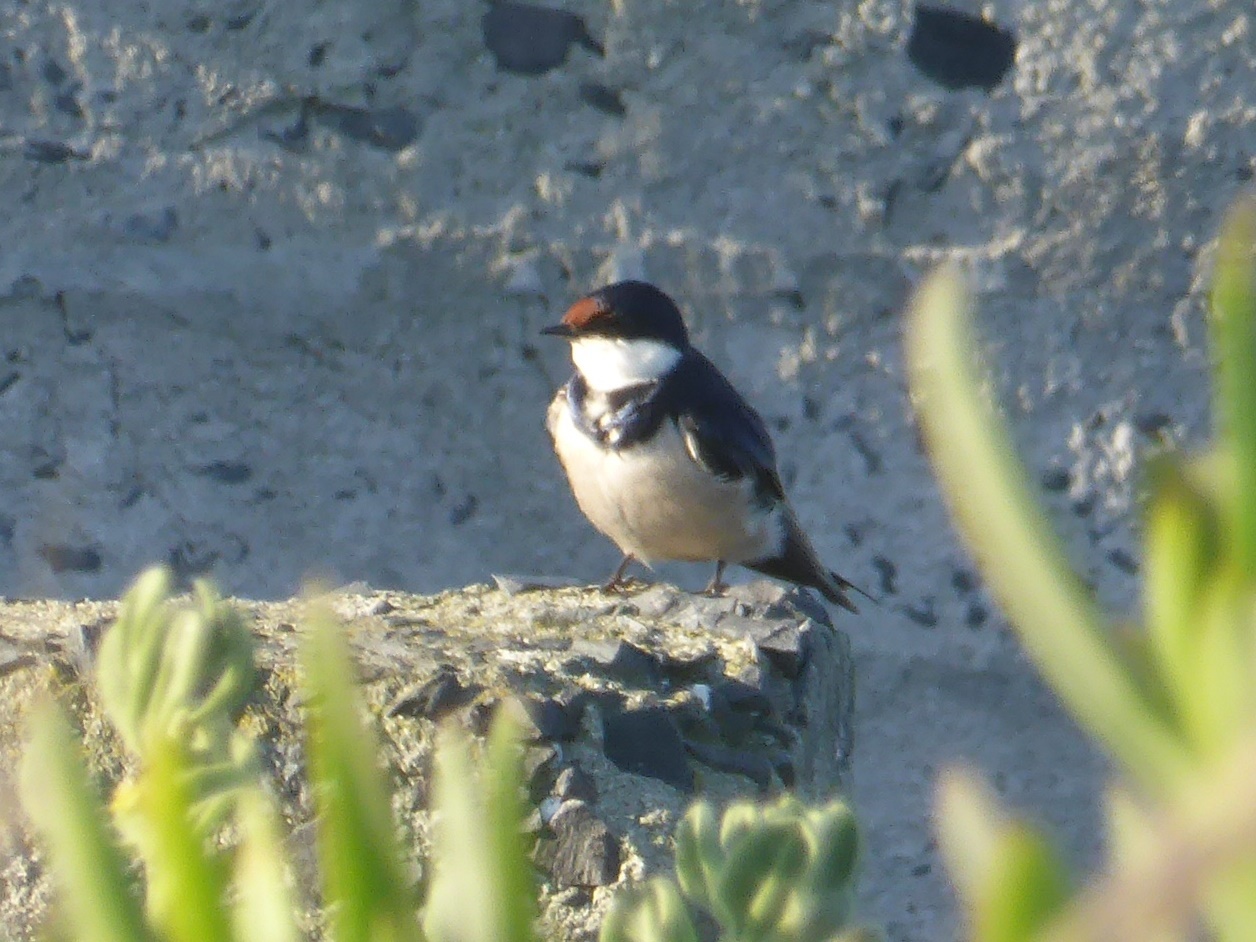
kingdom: Animalia
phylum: Chordata
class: Aves
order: Passeriformes
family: Hirundinidae
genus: Hirundo
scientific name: Hirundo albigularis
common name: White-throated swallow
